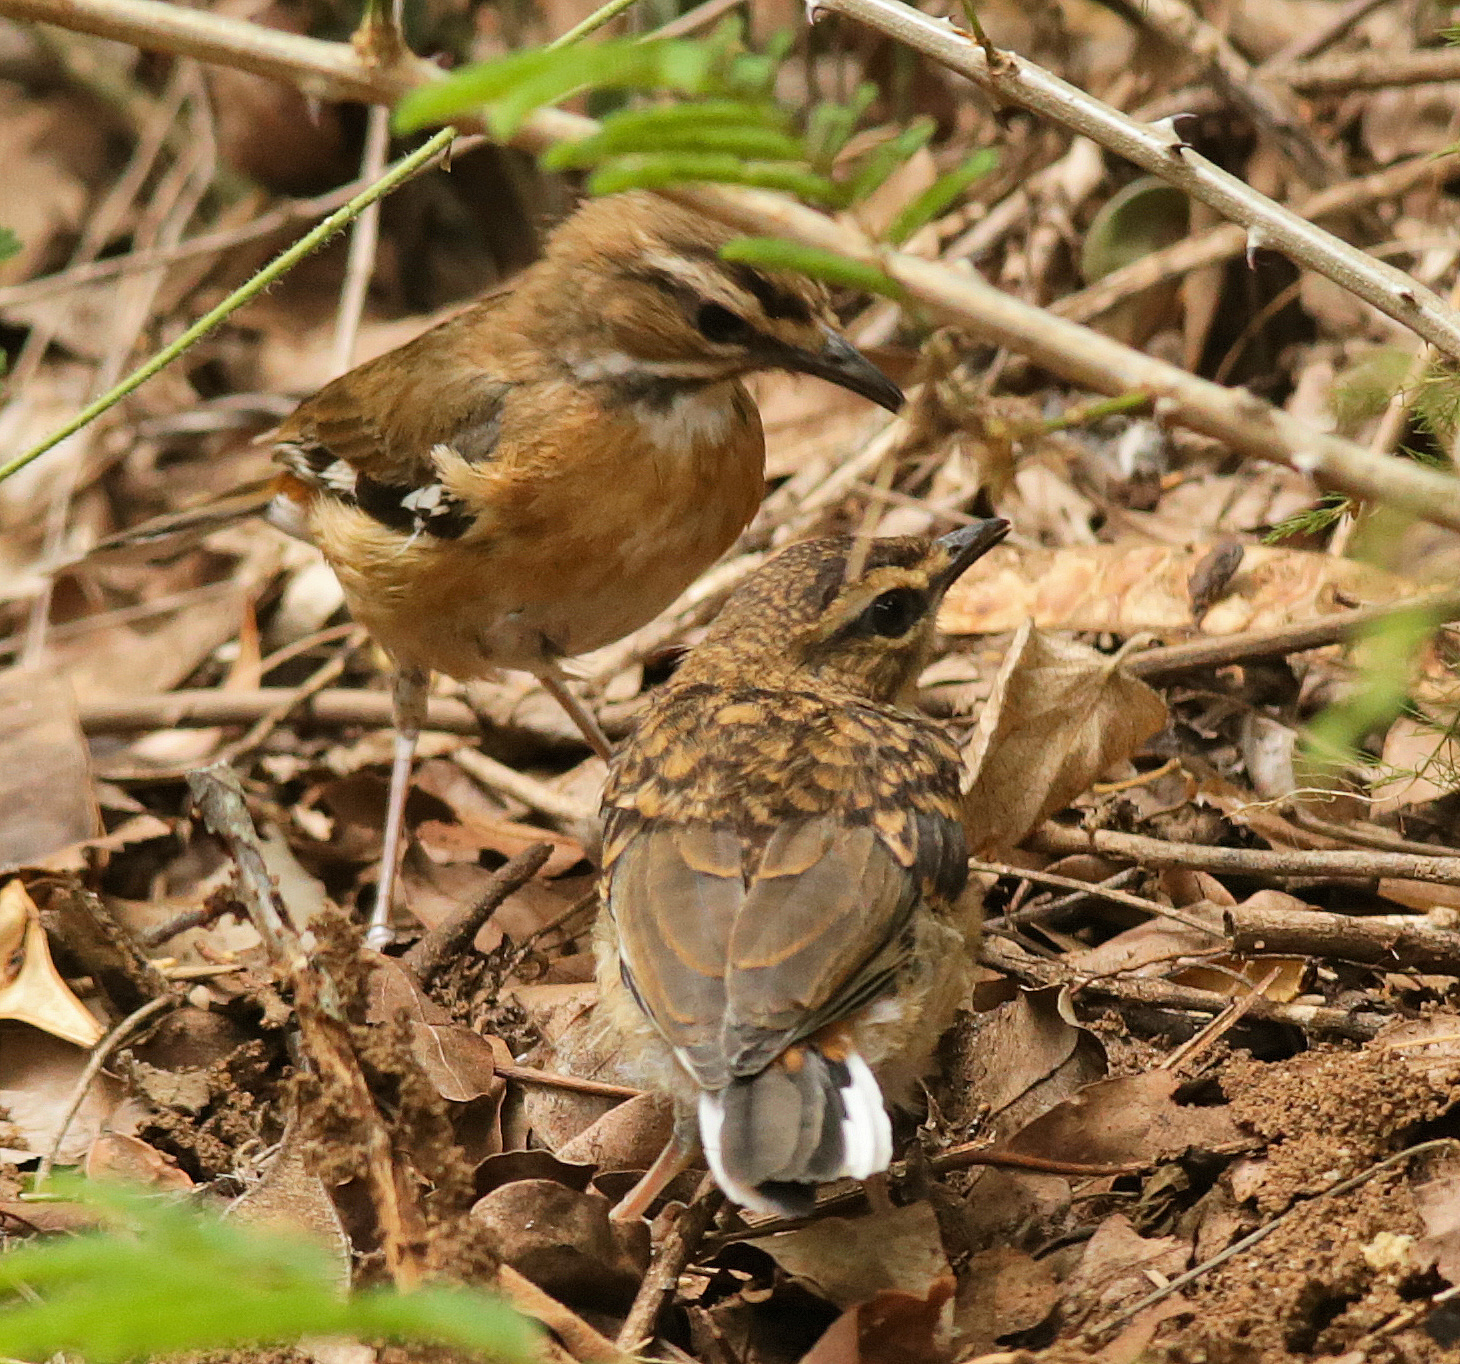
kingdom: Animalia
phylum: Chordata
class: Aves
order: Passeriformes
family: Muscicapidae
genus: Erythropygia
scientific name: Erythropygia quadrivirgata
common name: Bearded scrub robin
